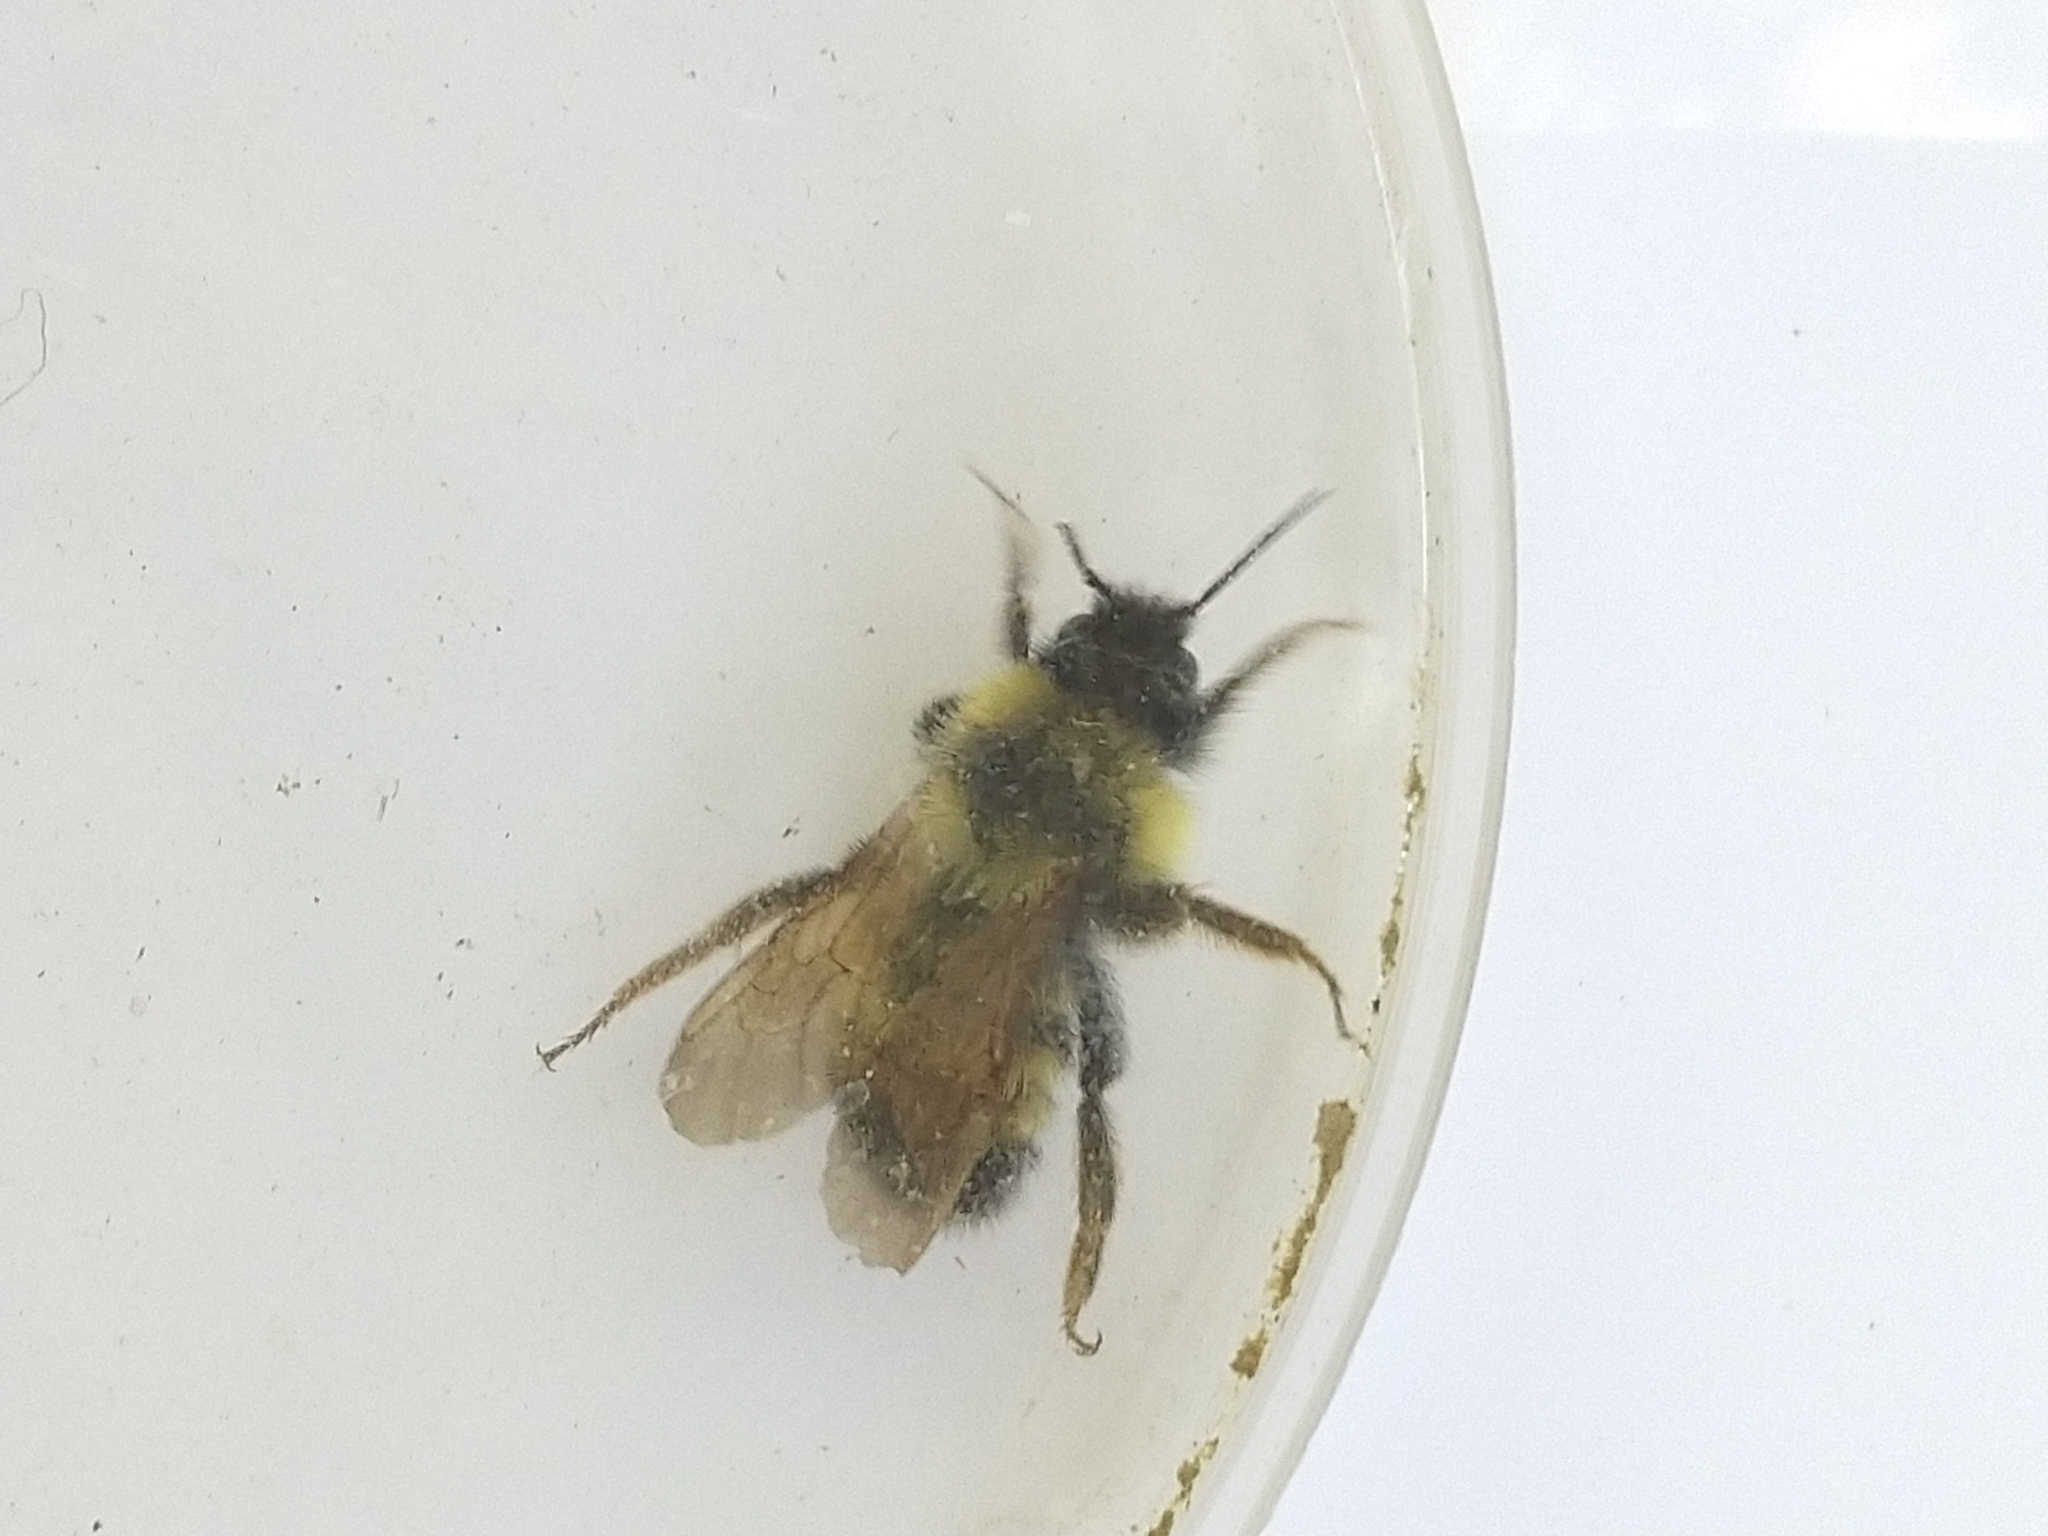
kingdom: Animalia
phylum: Arthropoda
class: Insecta
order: Hymenoptera
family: Apidae
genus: Bombus
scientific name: Bombus citrinus
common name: Lemon cuckoo bumble bee
